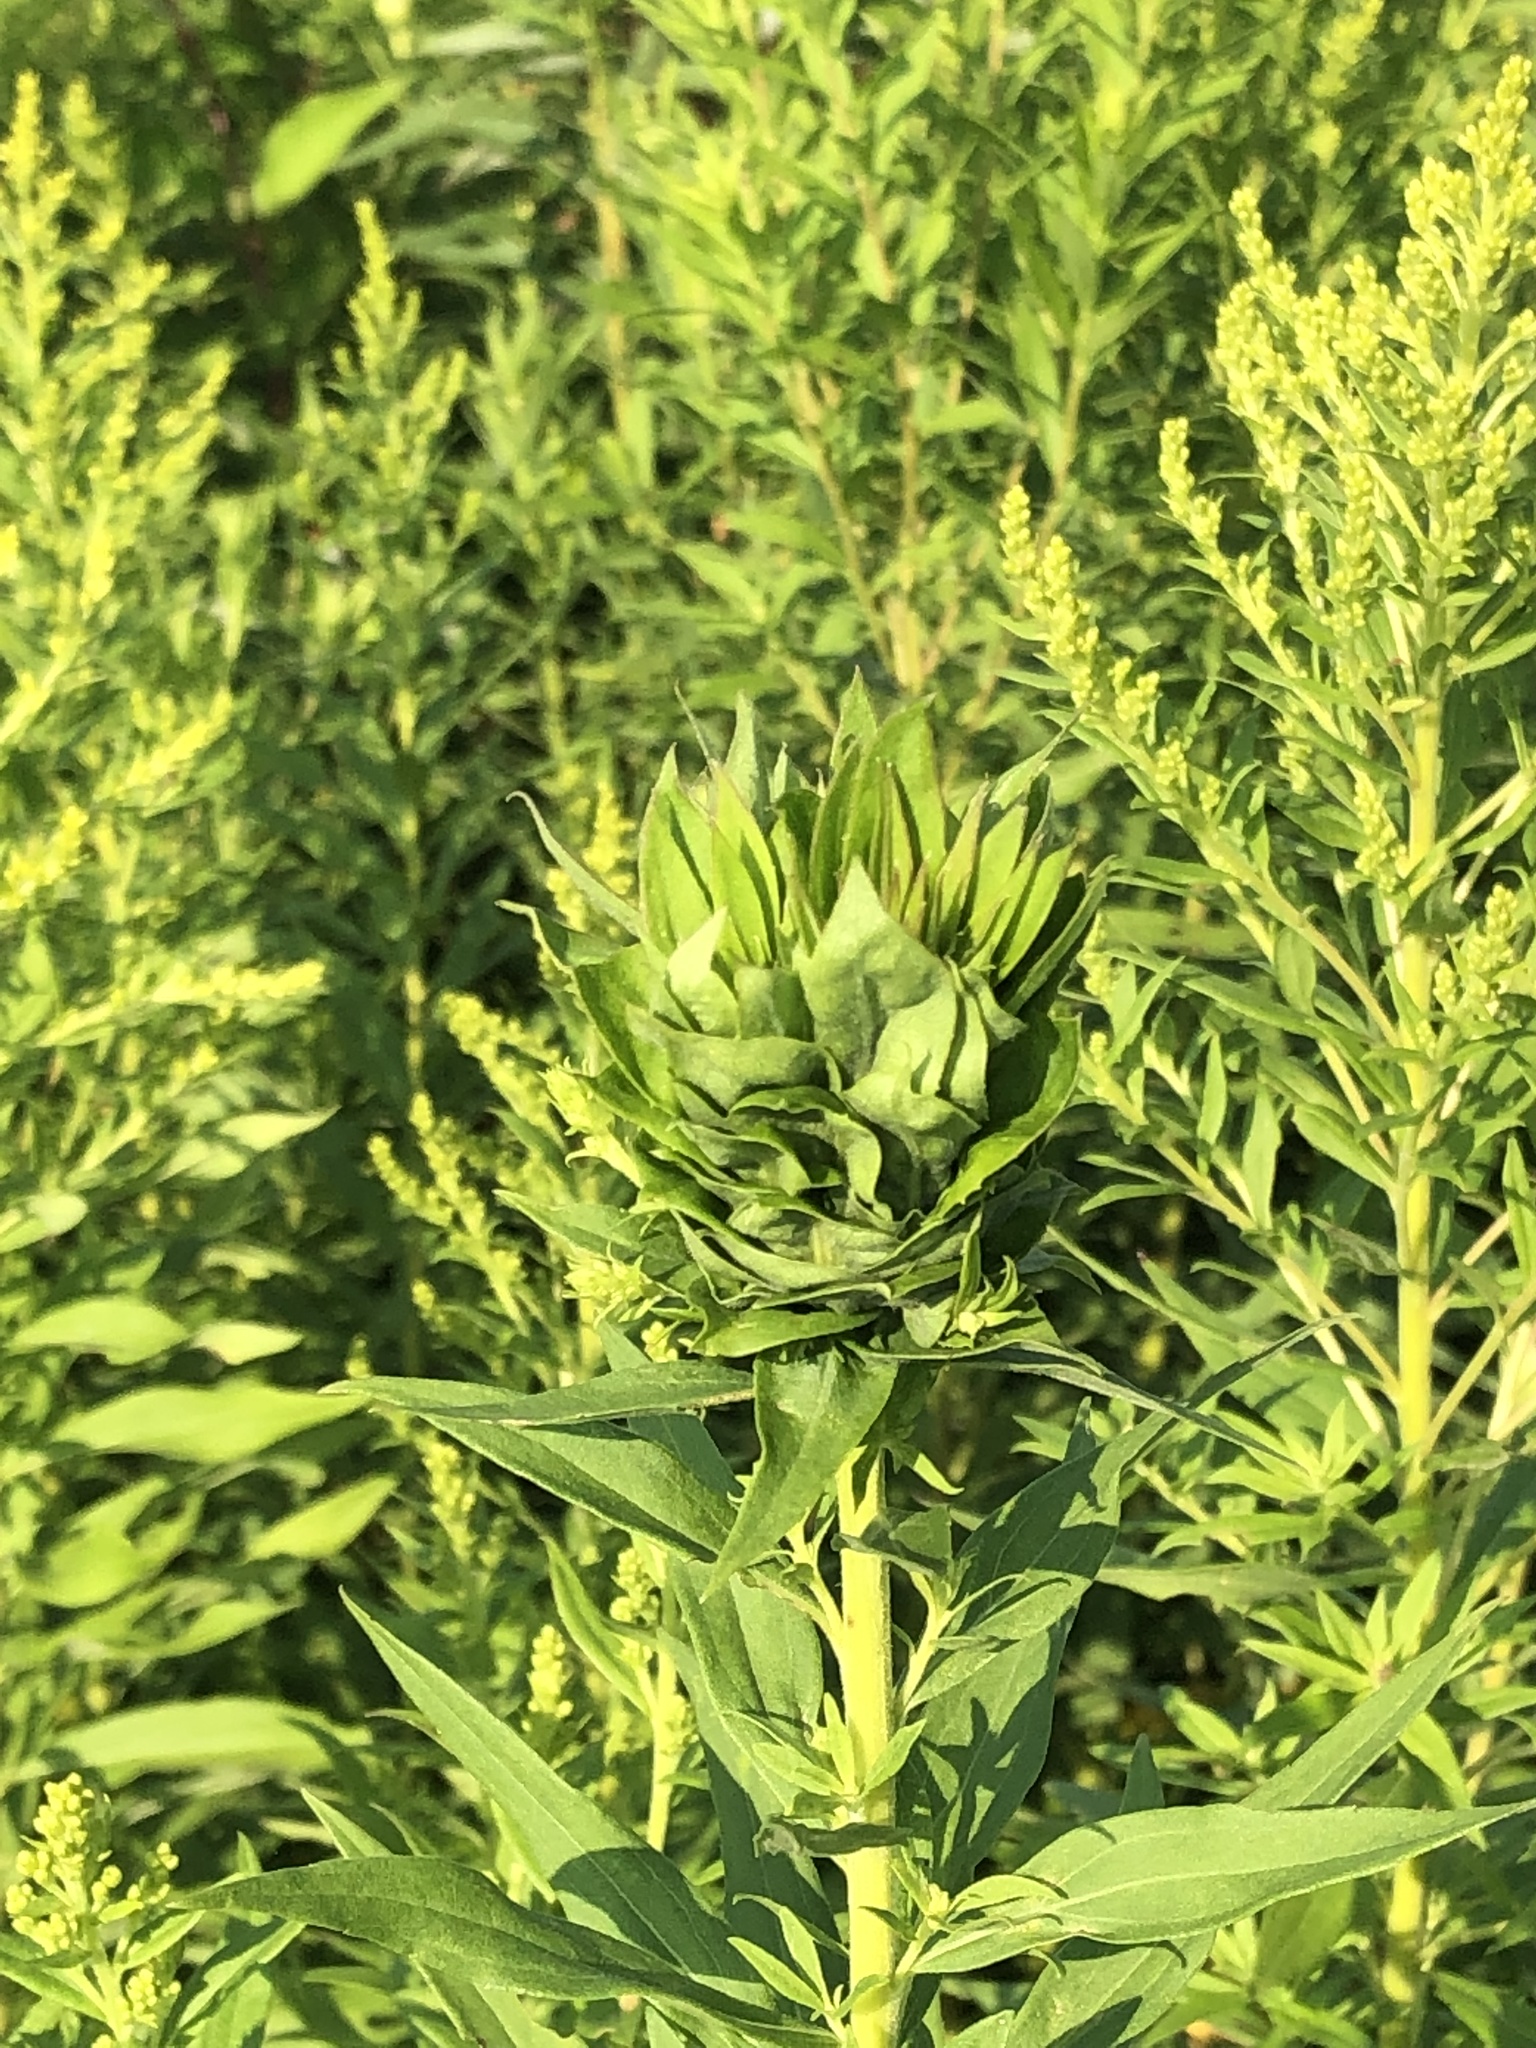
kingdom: Animalia
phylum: Arthropoda
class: Insecta
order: Diptera
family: Cecidomyiidae
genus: Rhopalomyia
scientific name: Rhopalomyia solidaginis
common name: Goldenrod bunch gall midge
